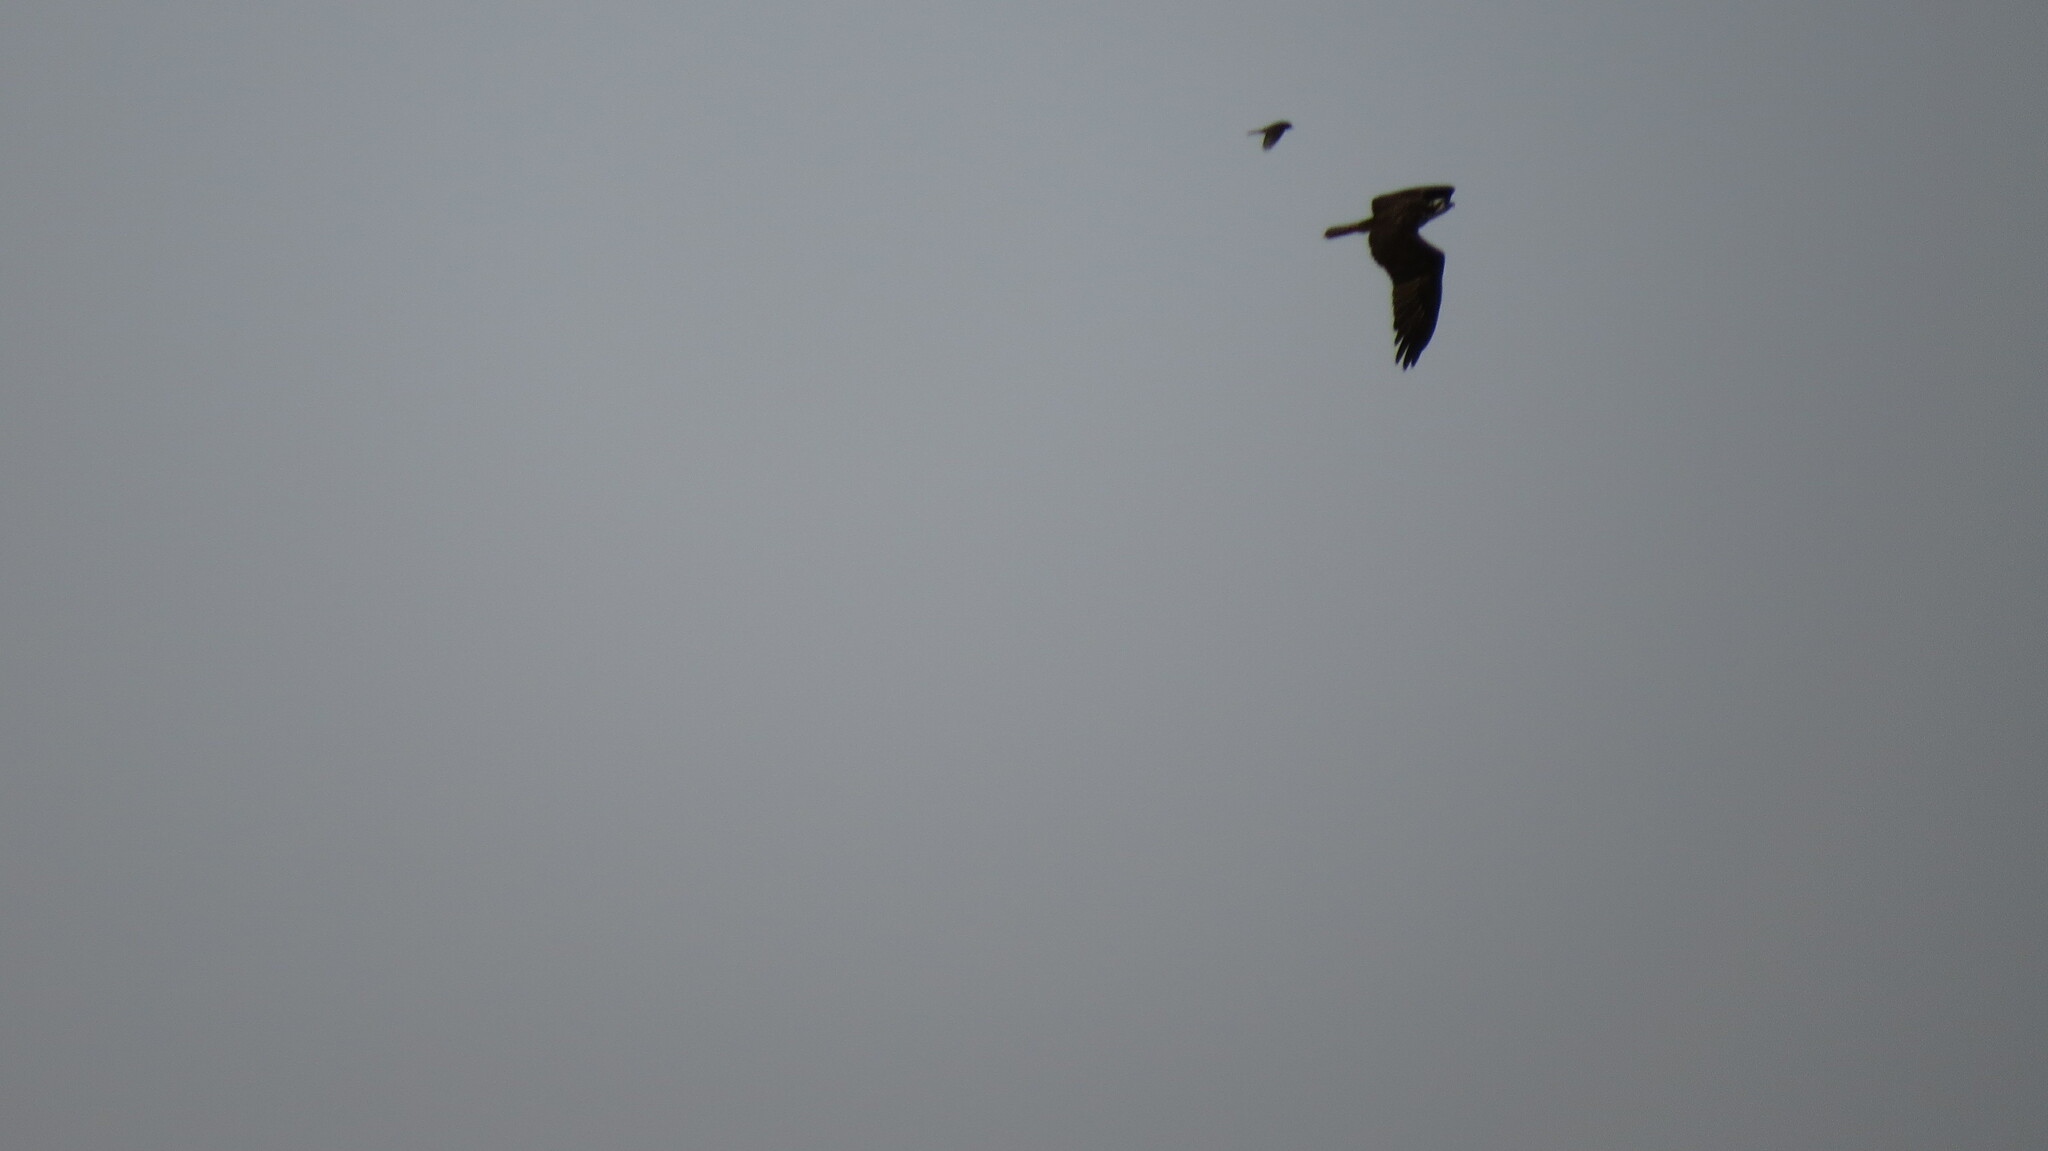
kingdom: Animalia
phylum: Chordata
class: Aves
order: Accipitriformes
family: Pandionidae
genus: Pandion
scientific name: Pandion haliaetus
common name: Osprey
